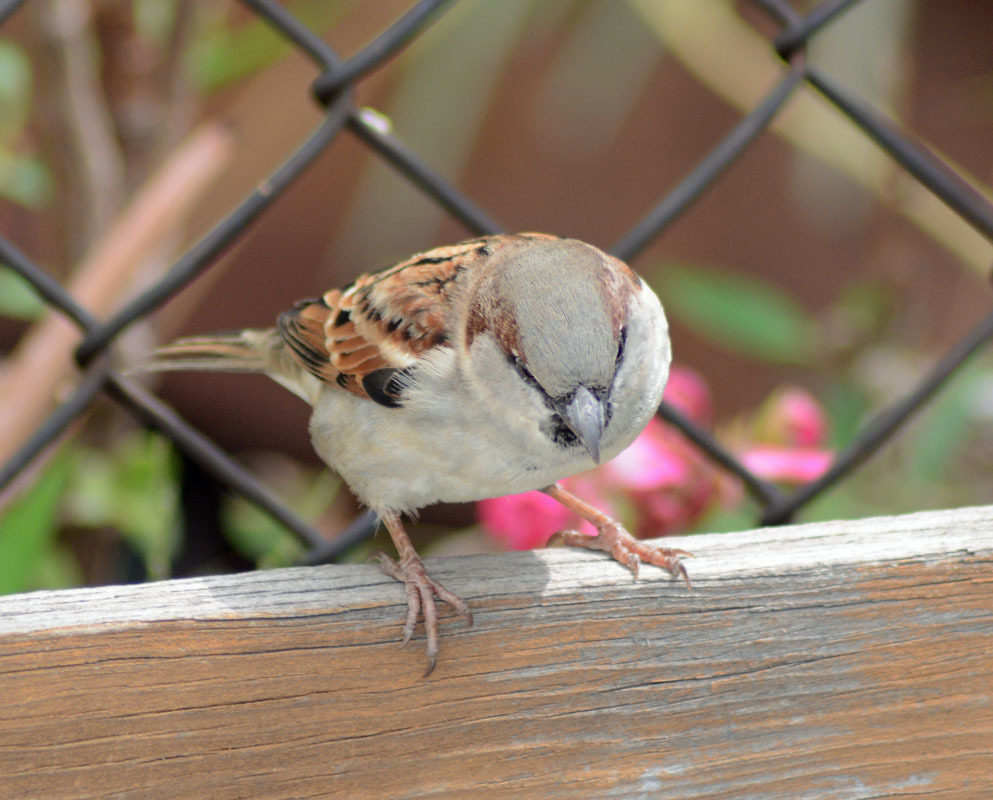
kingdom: Animalia
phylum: Chordata
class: Aves
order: Passeriformes
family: Passeridae
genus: Passer
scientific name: Passer domesticus
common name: House sparrow
